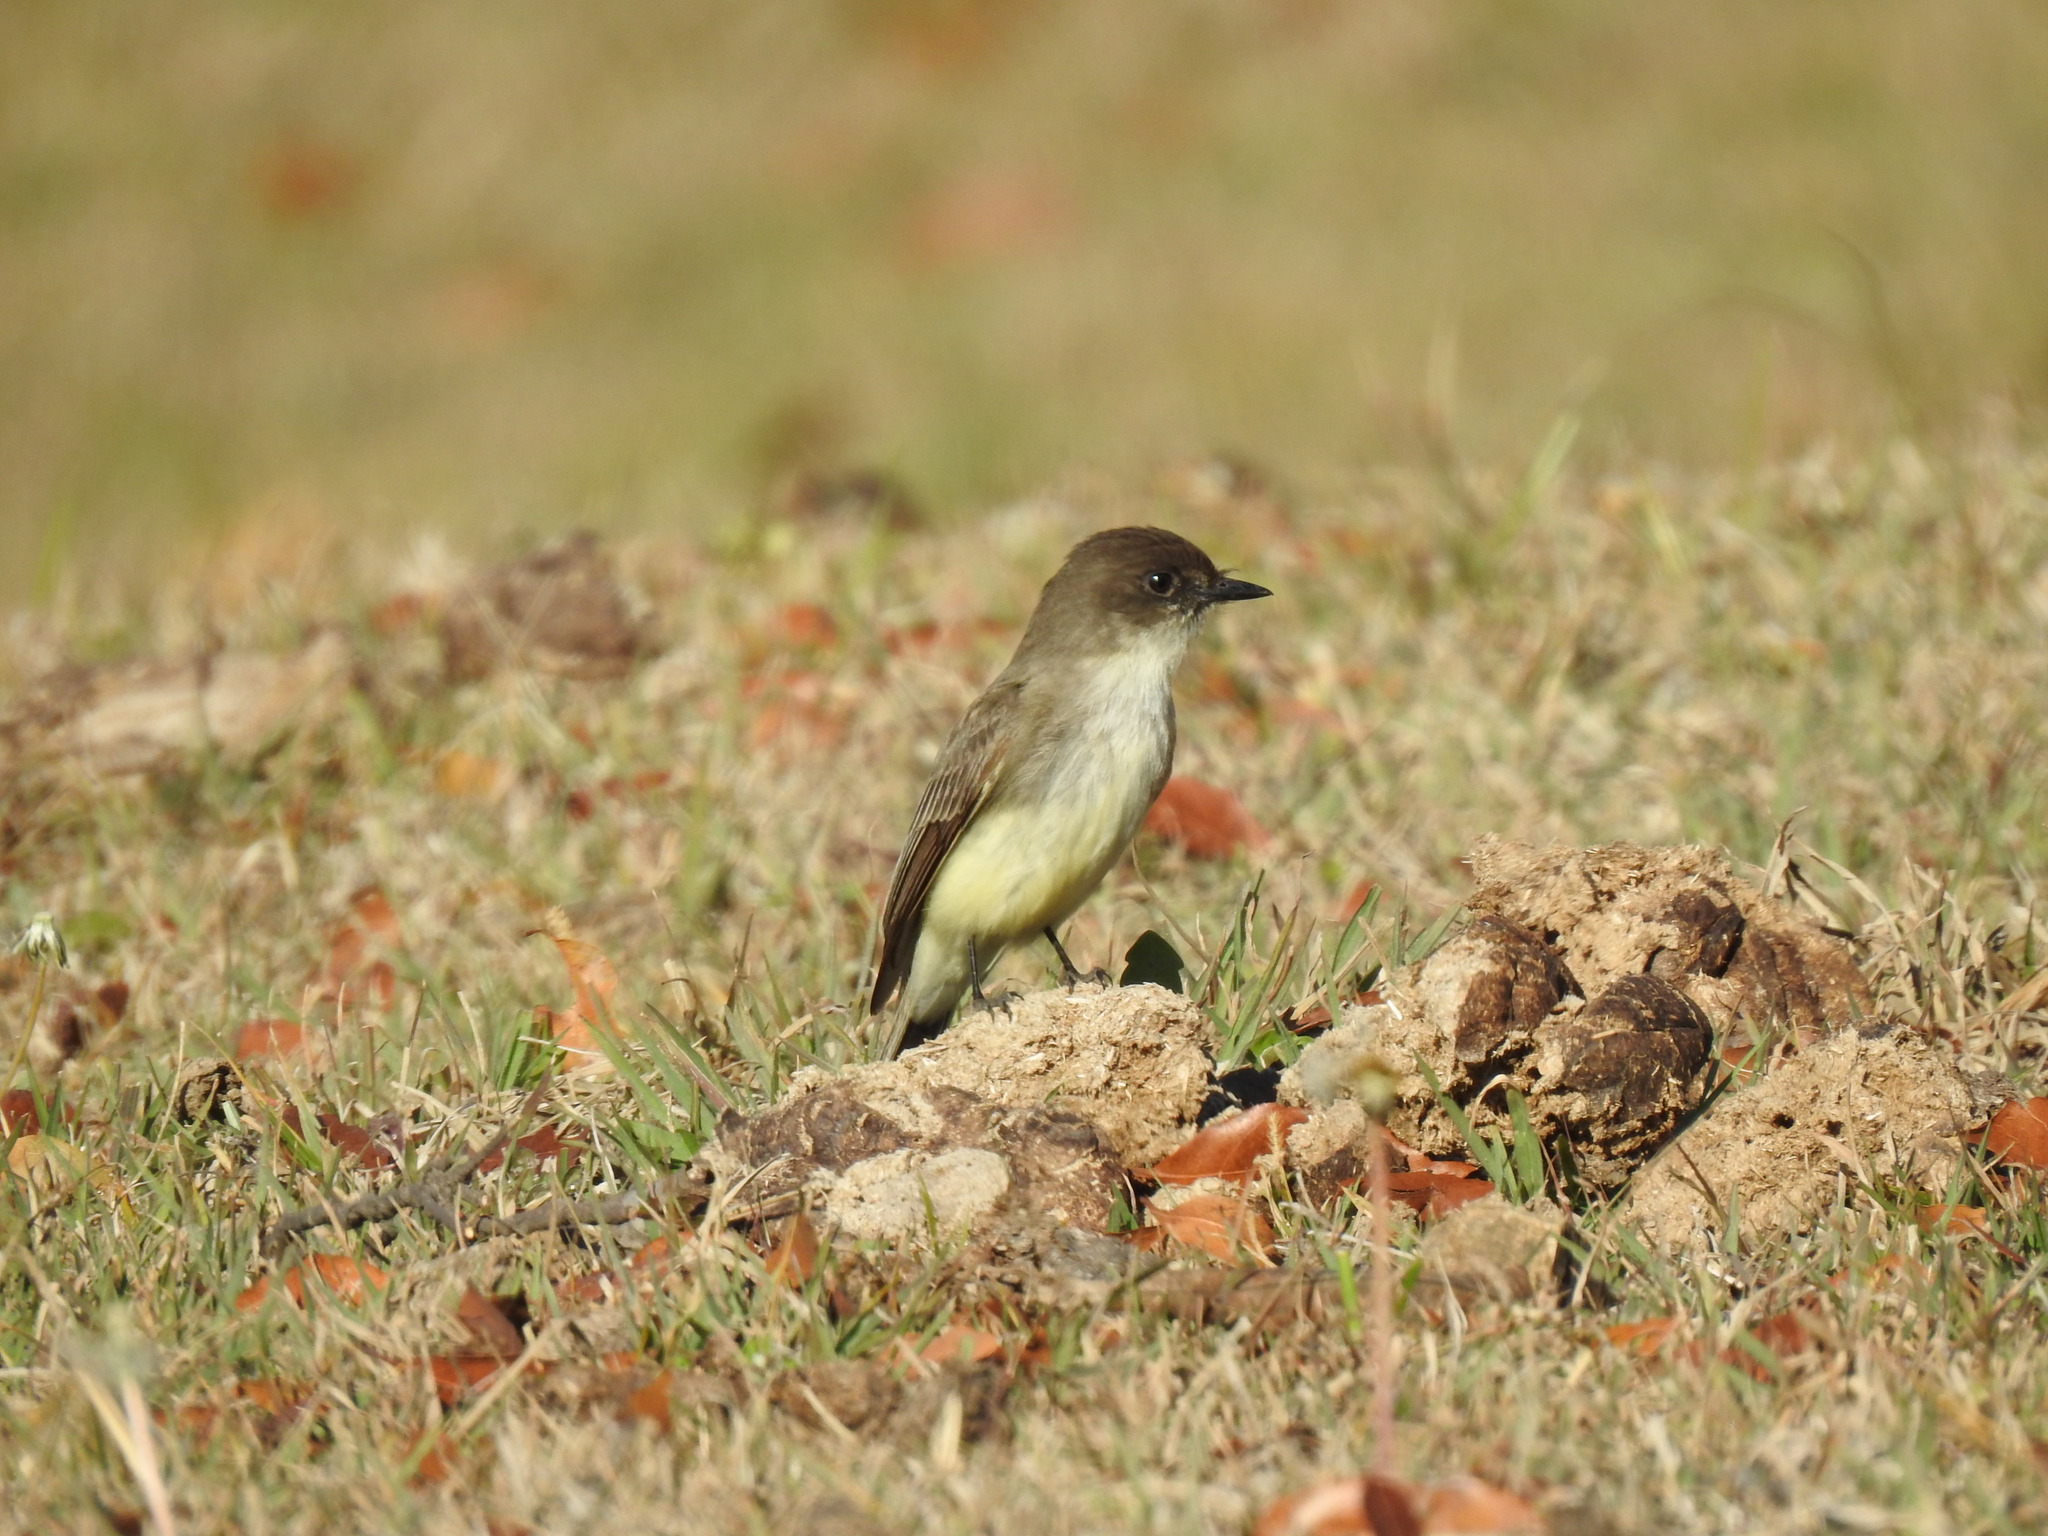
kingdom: Animalia
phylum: Chordata
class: Aves
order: Passeriformes
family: Tyrannidae
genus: Sayornis
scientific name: Sayornis phoebe
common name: Eastern phoebe
